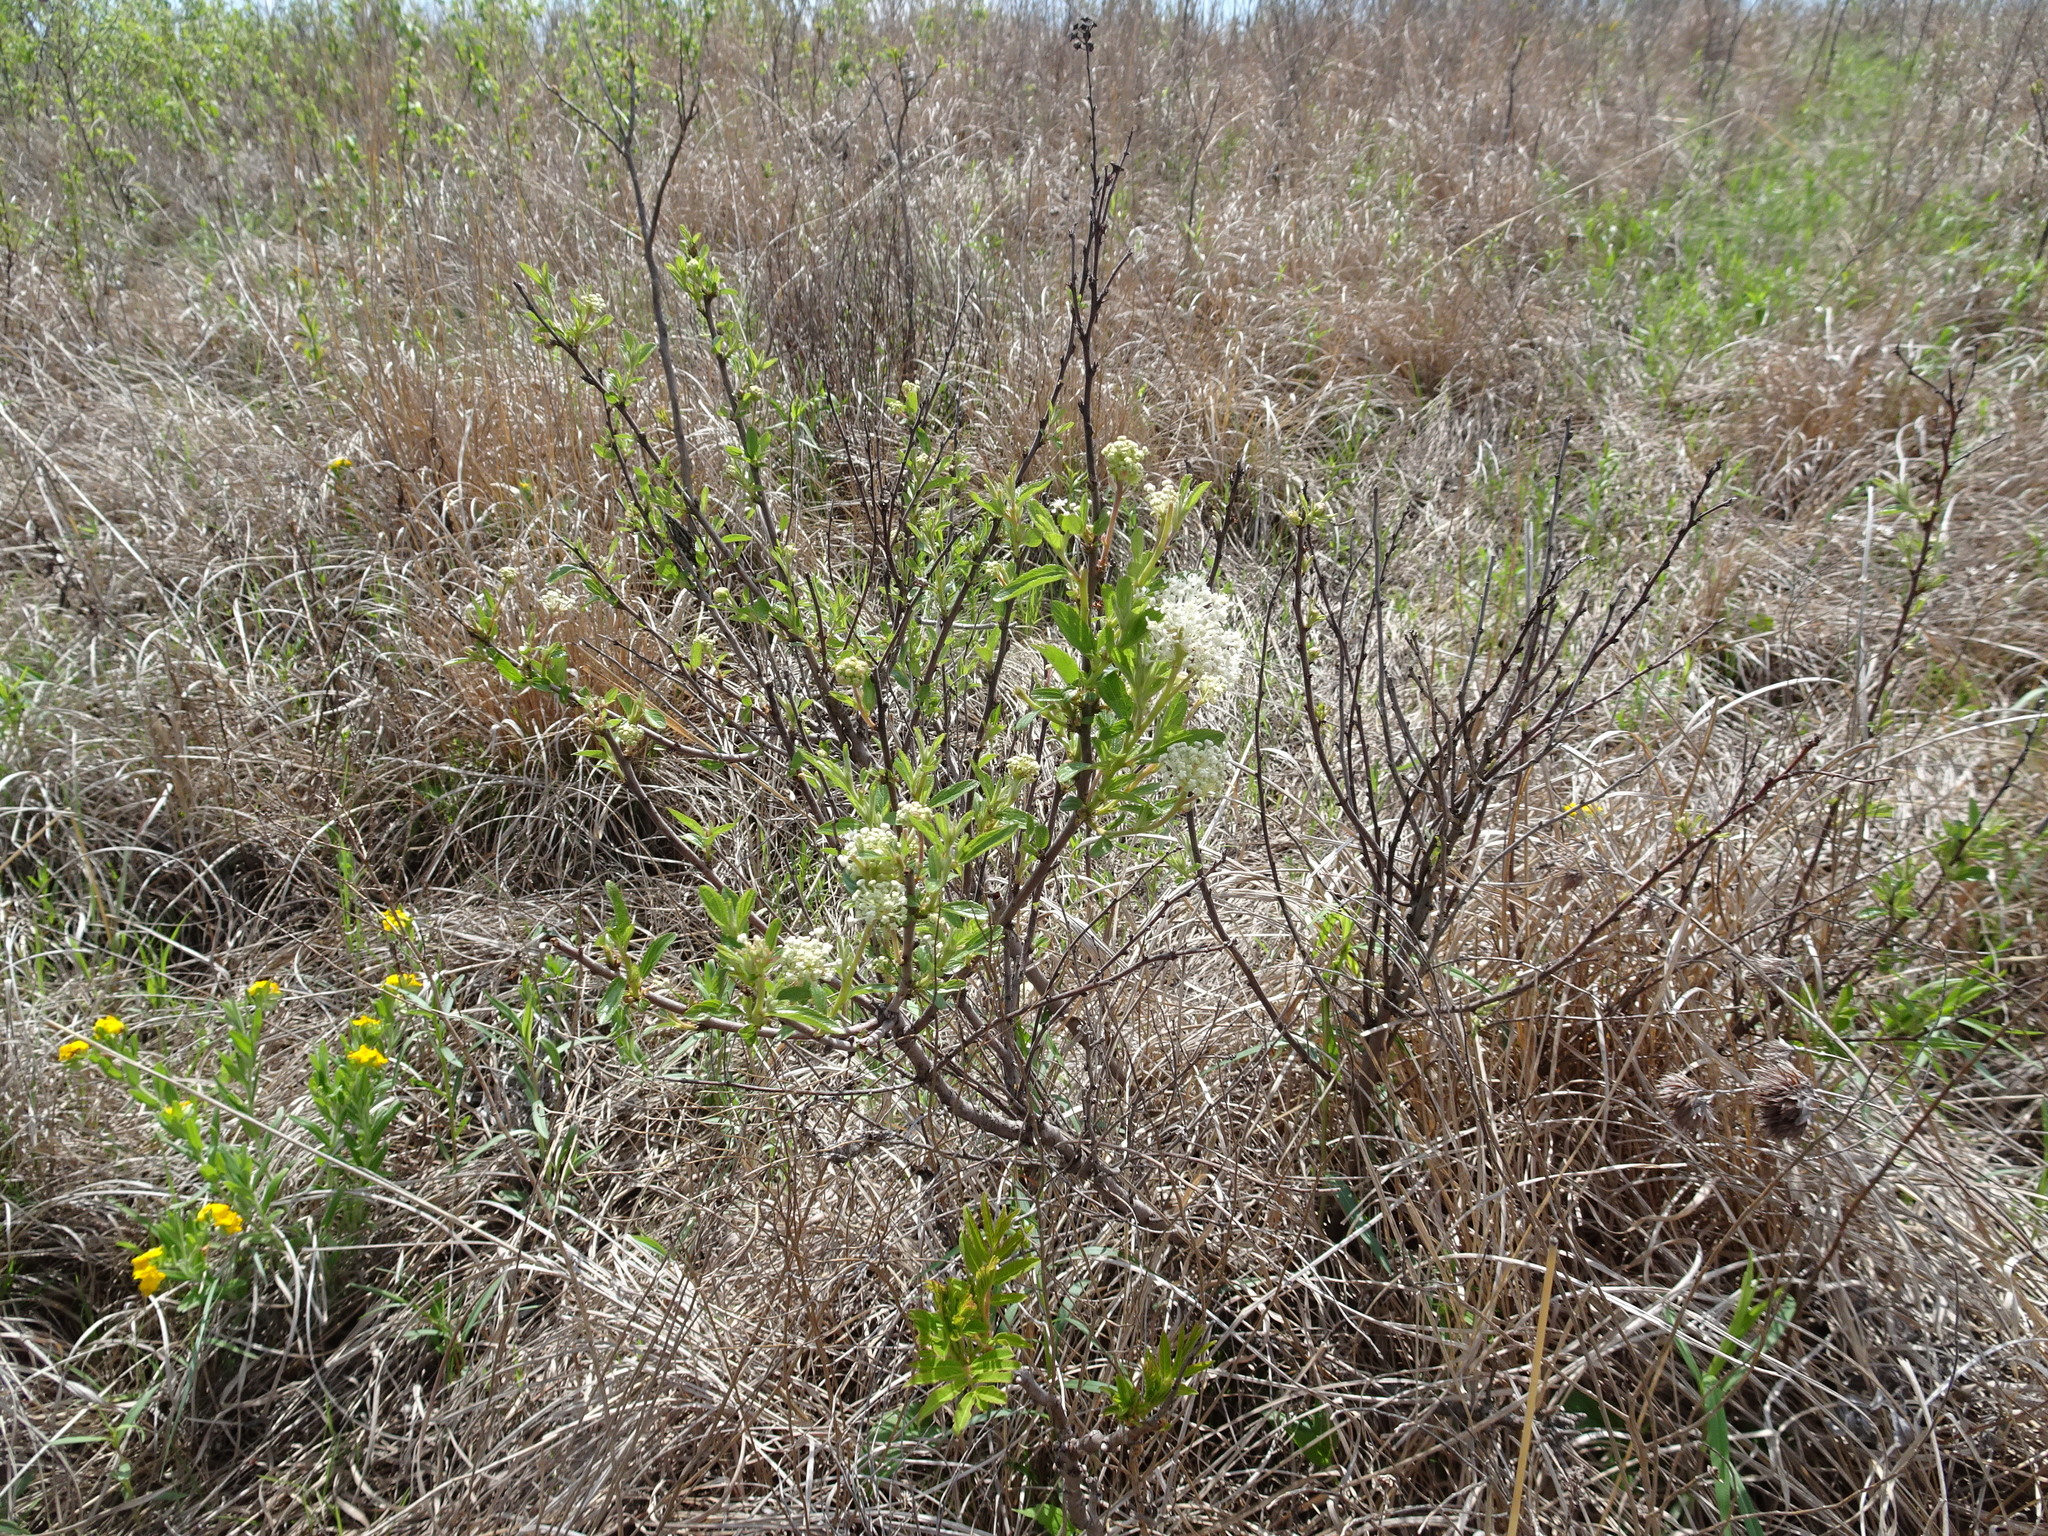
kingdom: Plantae
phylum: Tracheophyta
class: Magnoliopsida
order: Rosales
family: Rhamnaceae
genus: Ceanothus
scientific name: Ceanothus herbaceus
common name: Inland ceanothus
